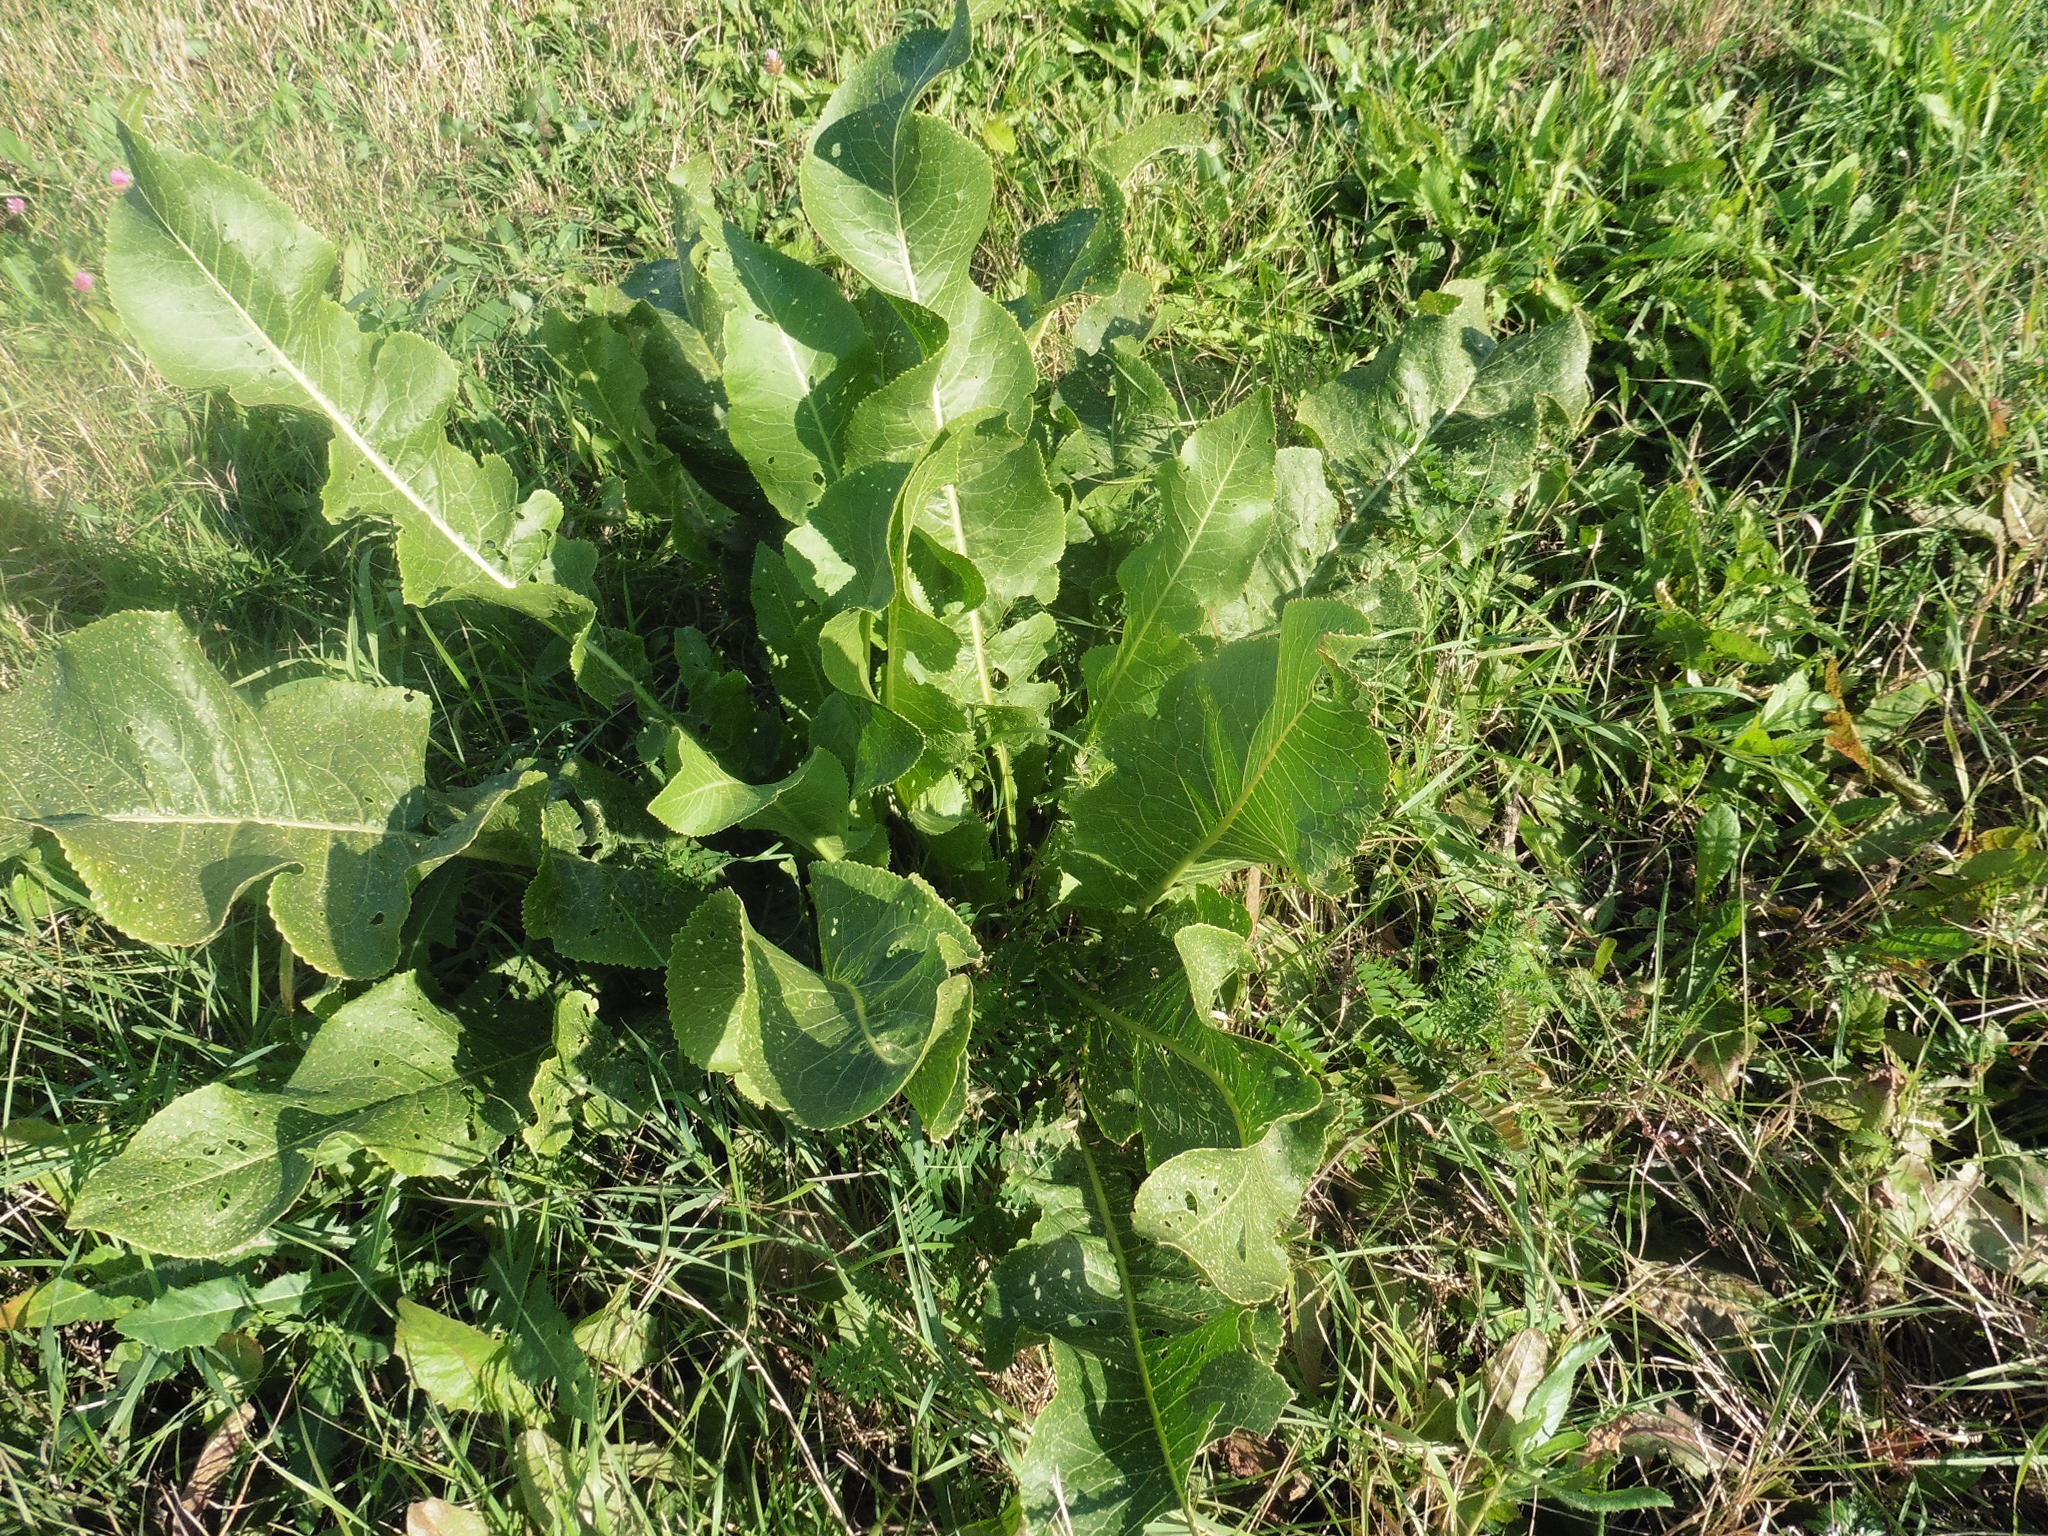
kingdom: Plantae
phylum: Tracheophyta
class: Magnoliopsida
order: Brassicales
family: Brassicaceae
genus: Armoracia
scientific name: Armoracia rusticana
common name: Horseradish
